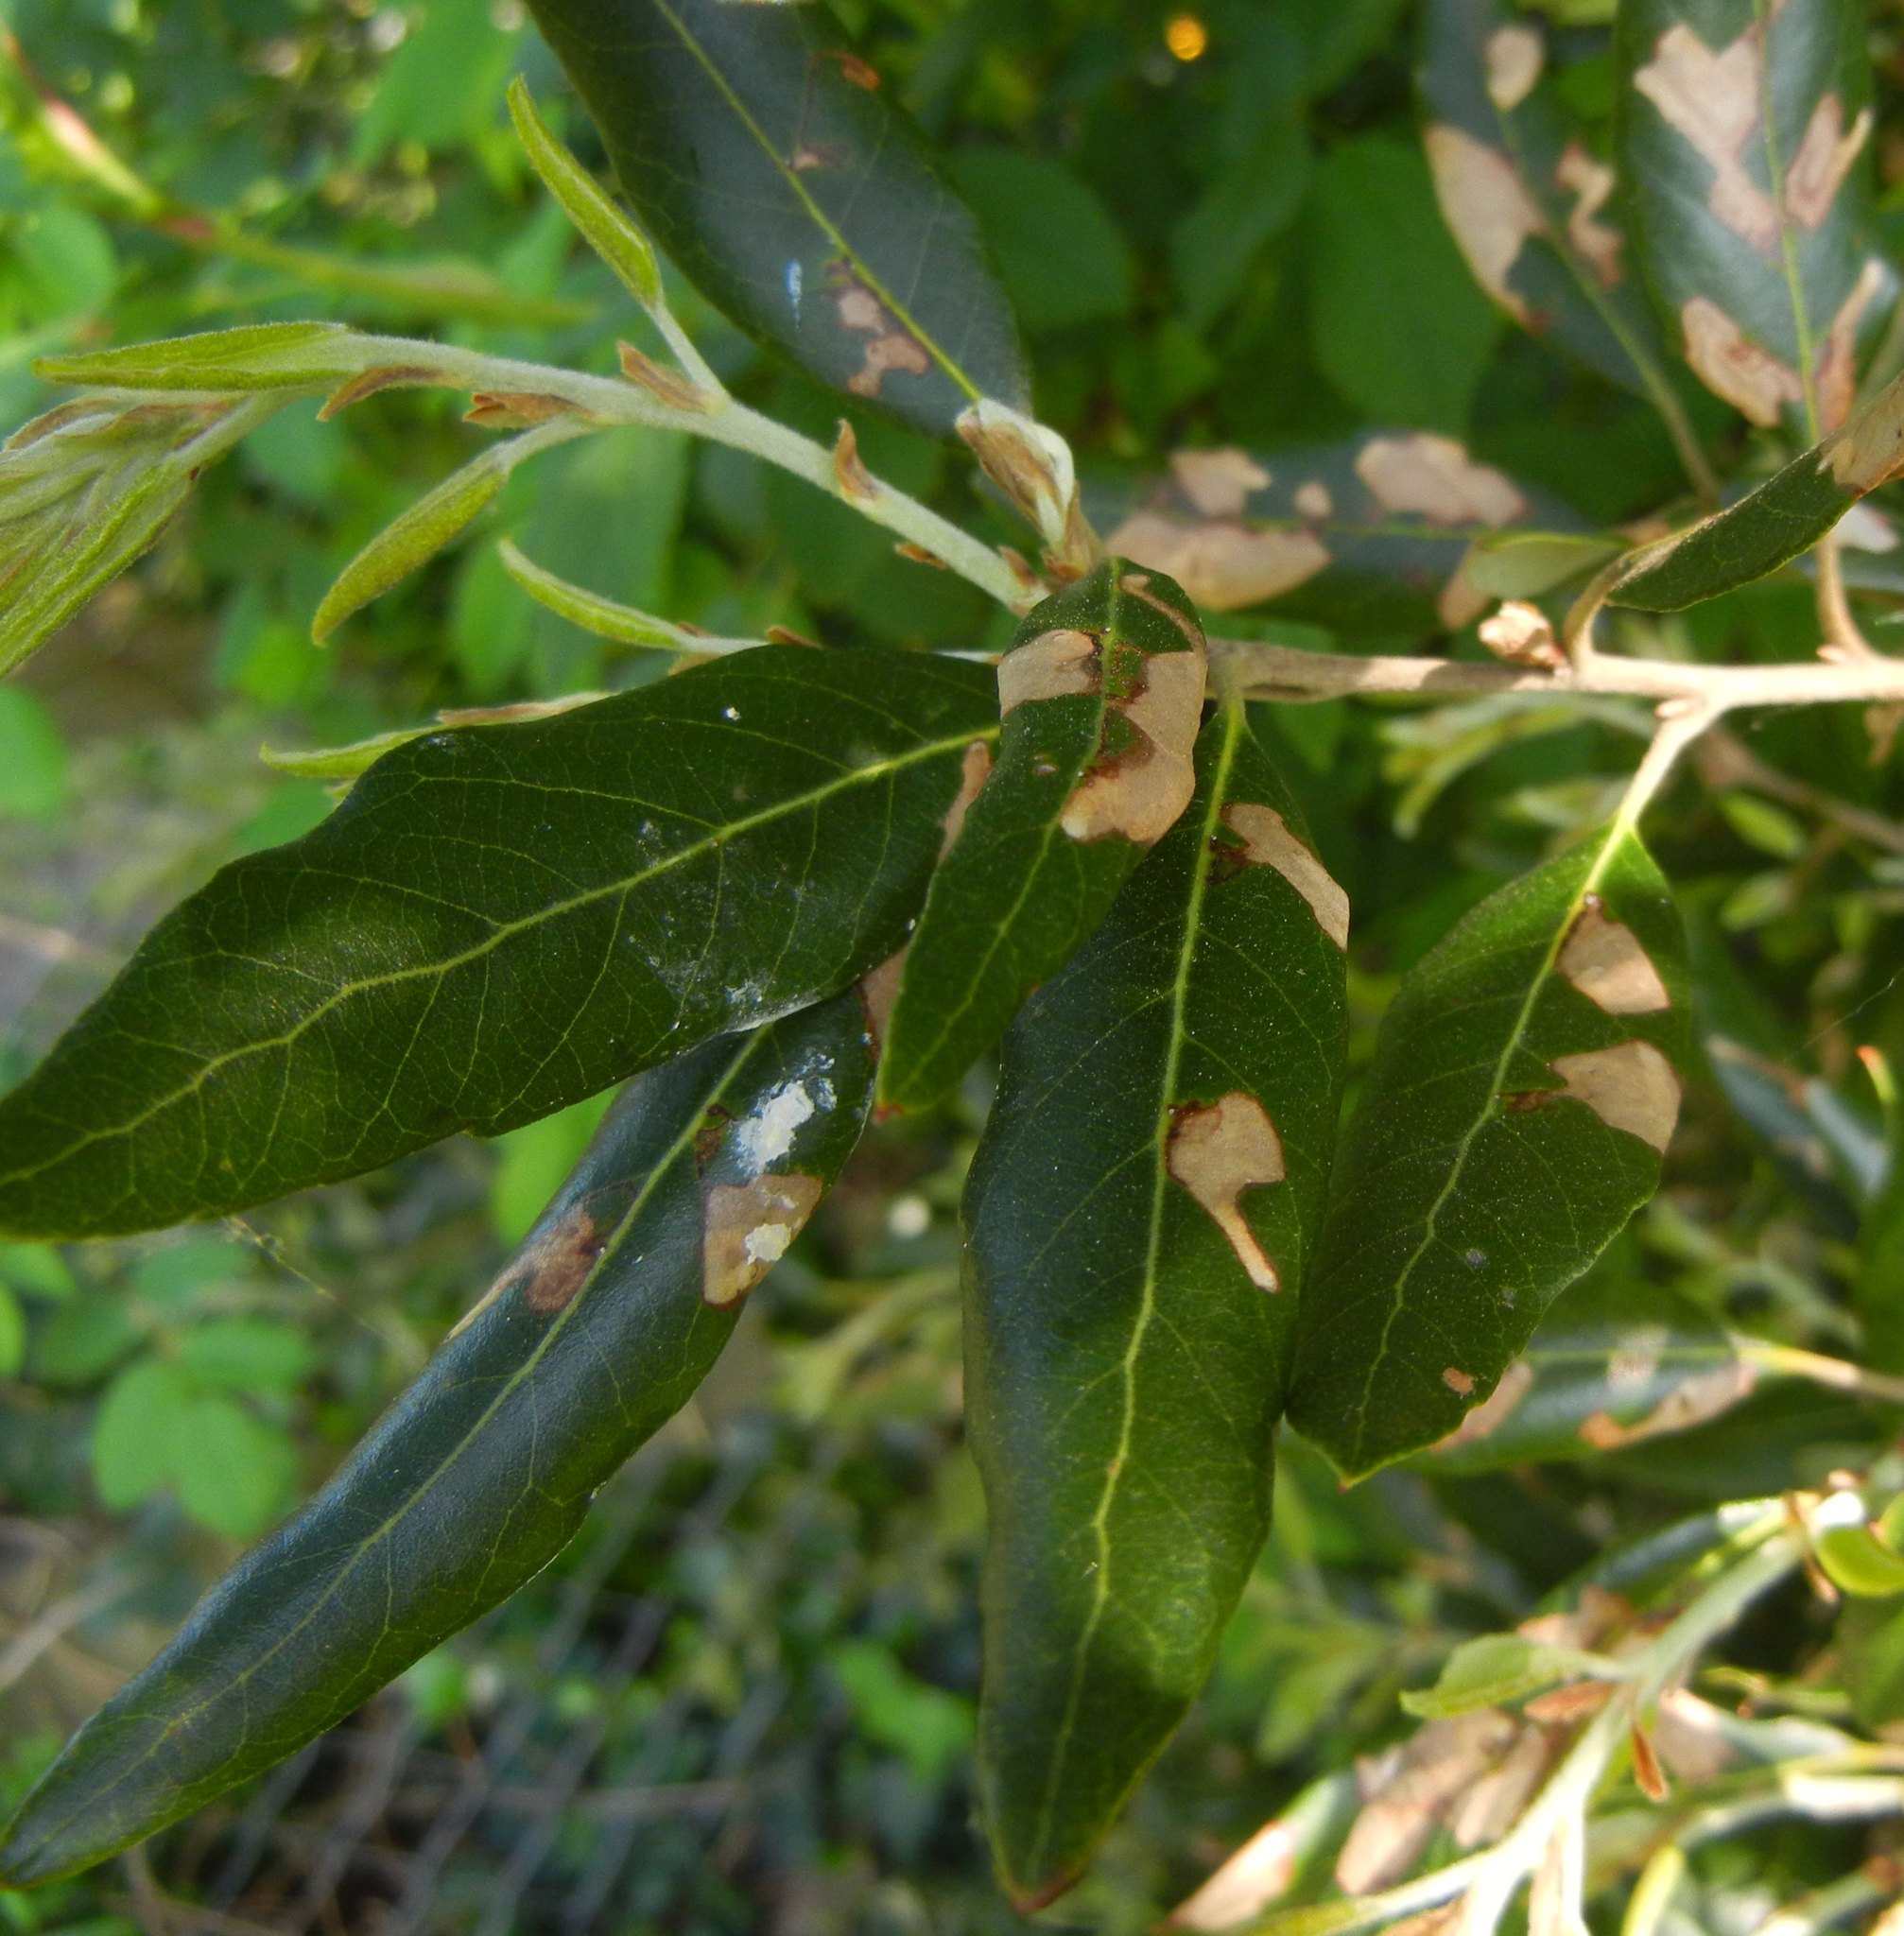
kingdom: Animalia
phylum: Arthropoda
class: Insecta
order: Lepidoptera
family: Gracillariidae
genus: Phyllonorycter
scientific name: Phyllonorycter messaniella
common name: Garden midget
